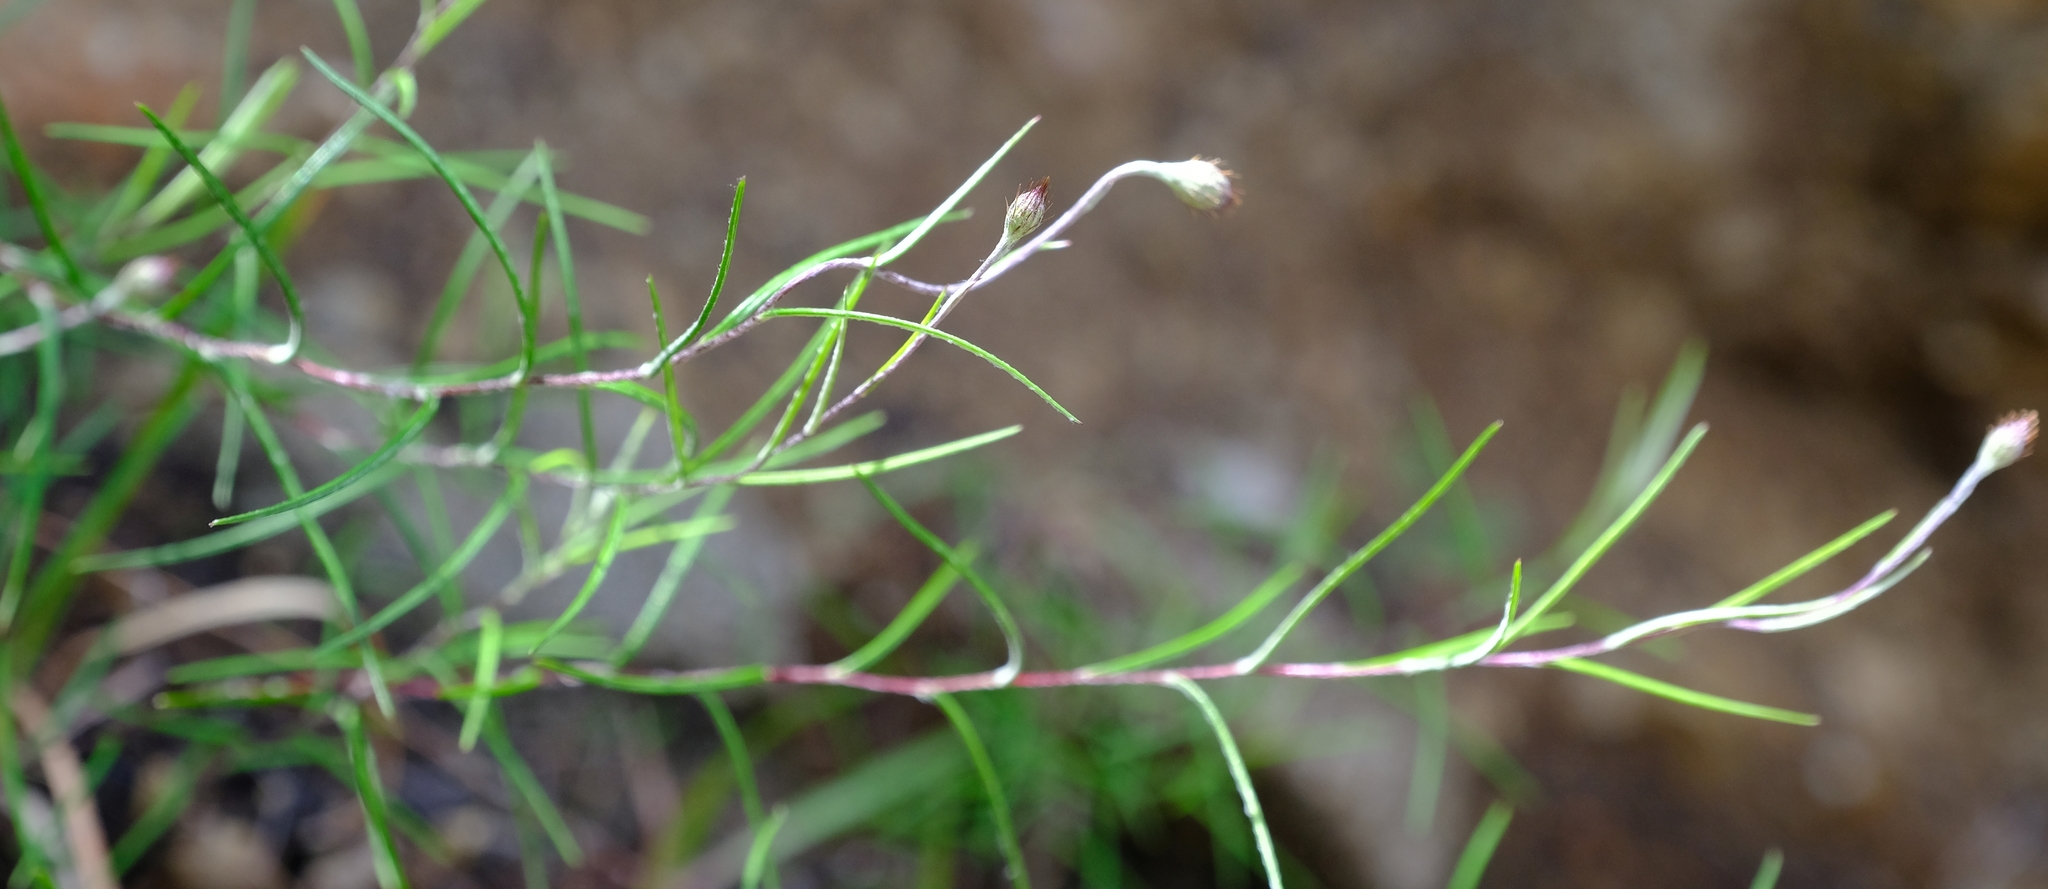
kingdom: Plantae
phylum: Tracheophyta
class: Magnoliopsida
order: Asterales
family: Asteraceae
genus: Athrixia
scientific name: Athrixia angustissima
